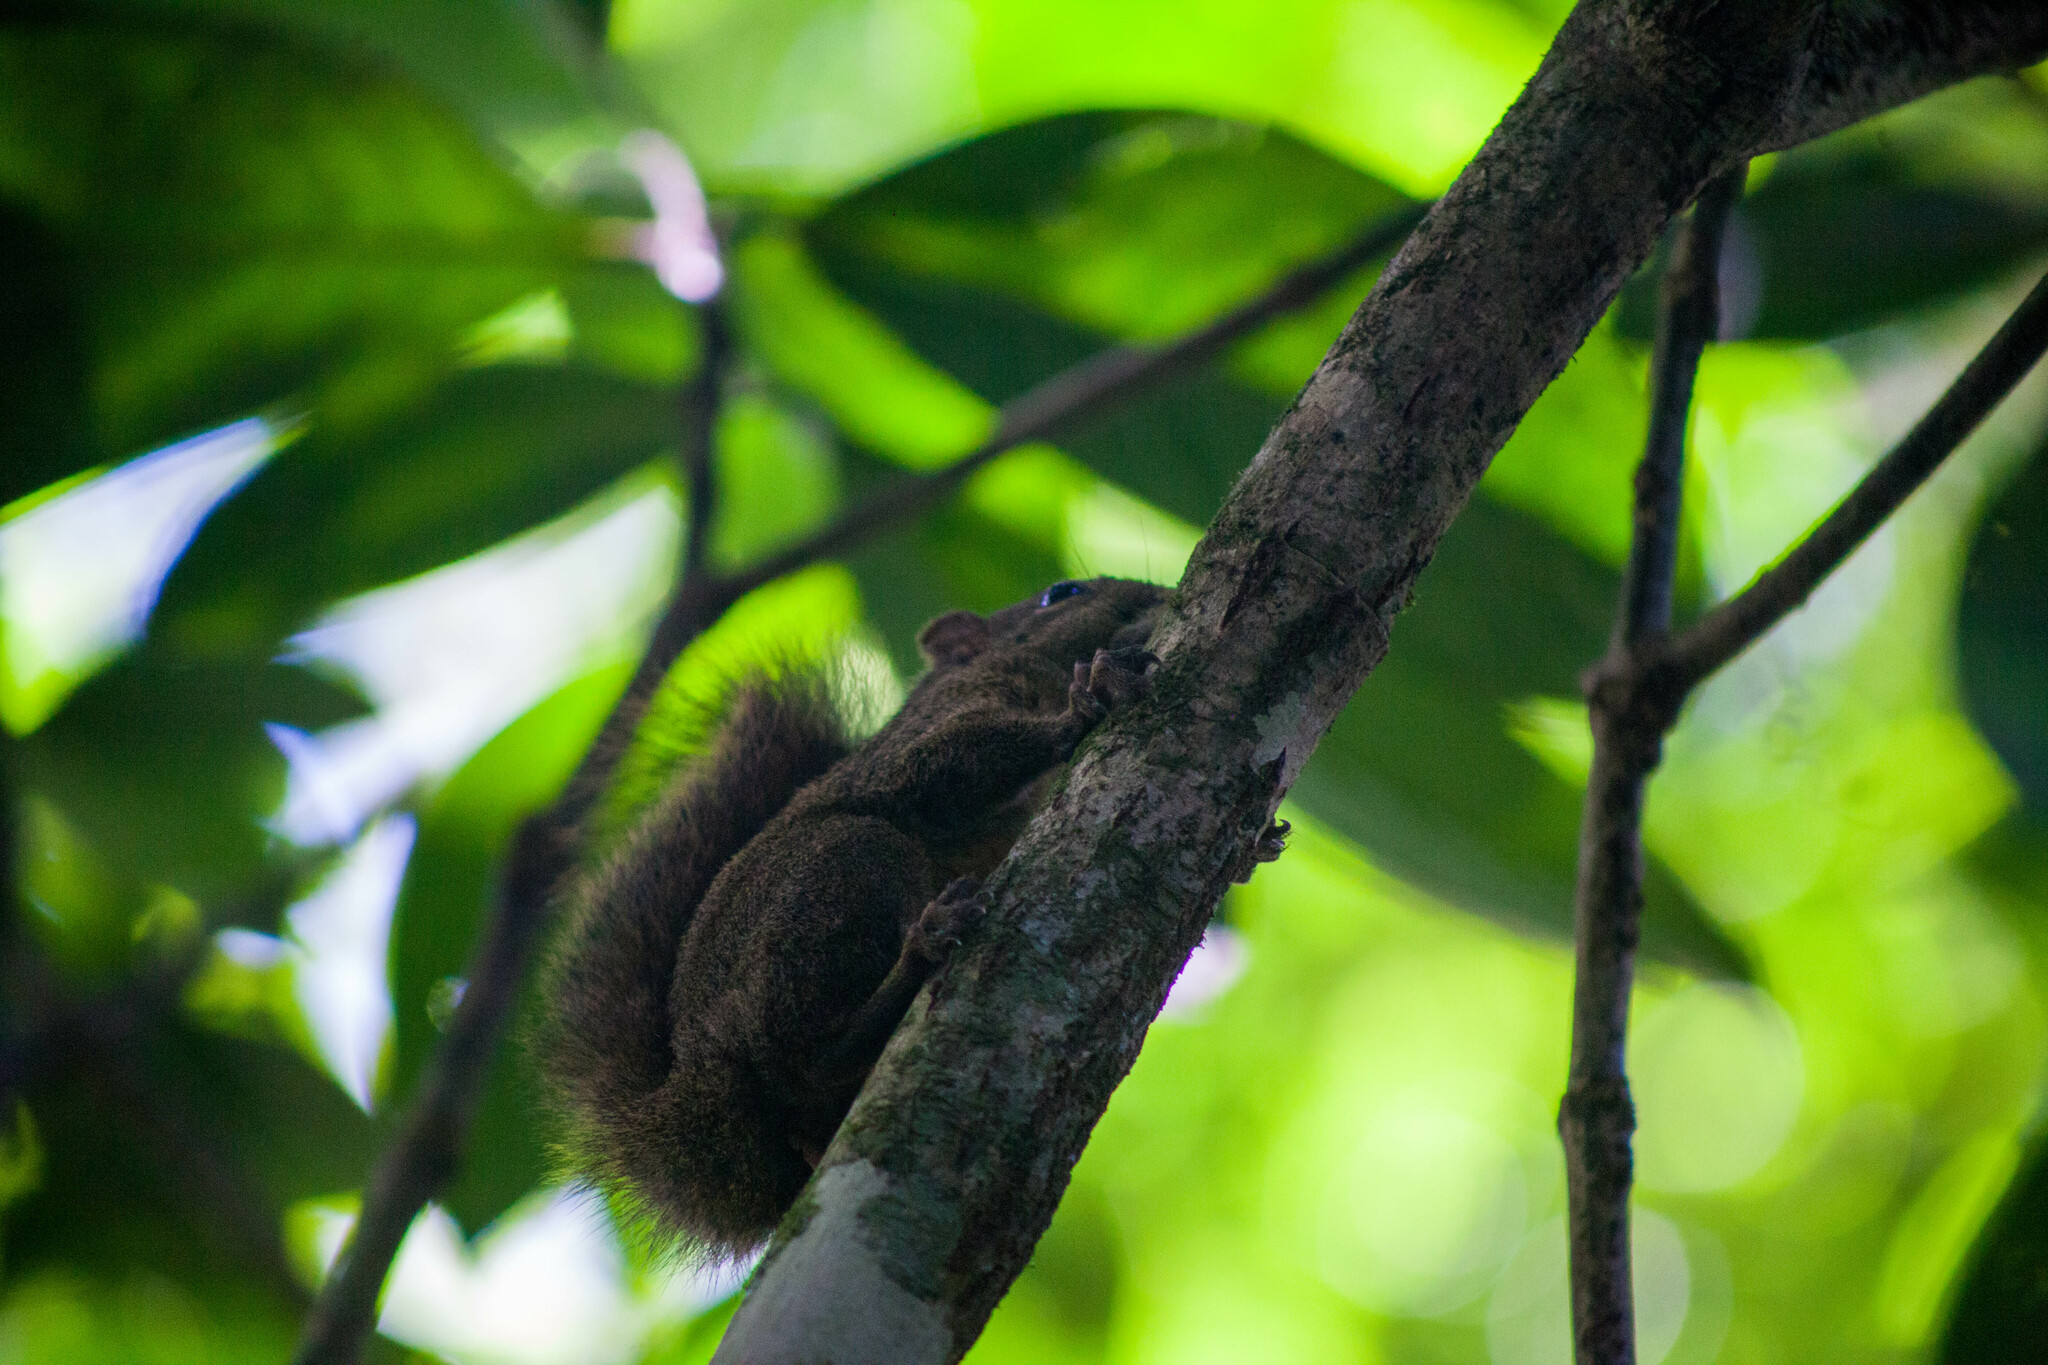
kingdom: Animalia
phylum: Chordata
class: Mammalia
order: Rodentia
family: Sciuridae
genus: Sciurus
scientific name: Sciurus aestuans
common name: Guianan squirrel
